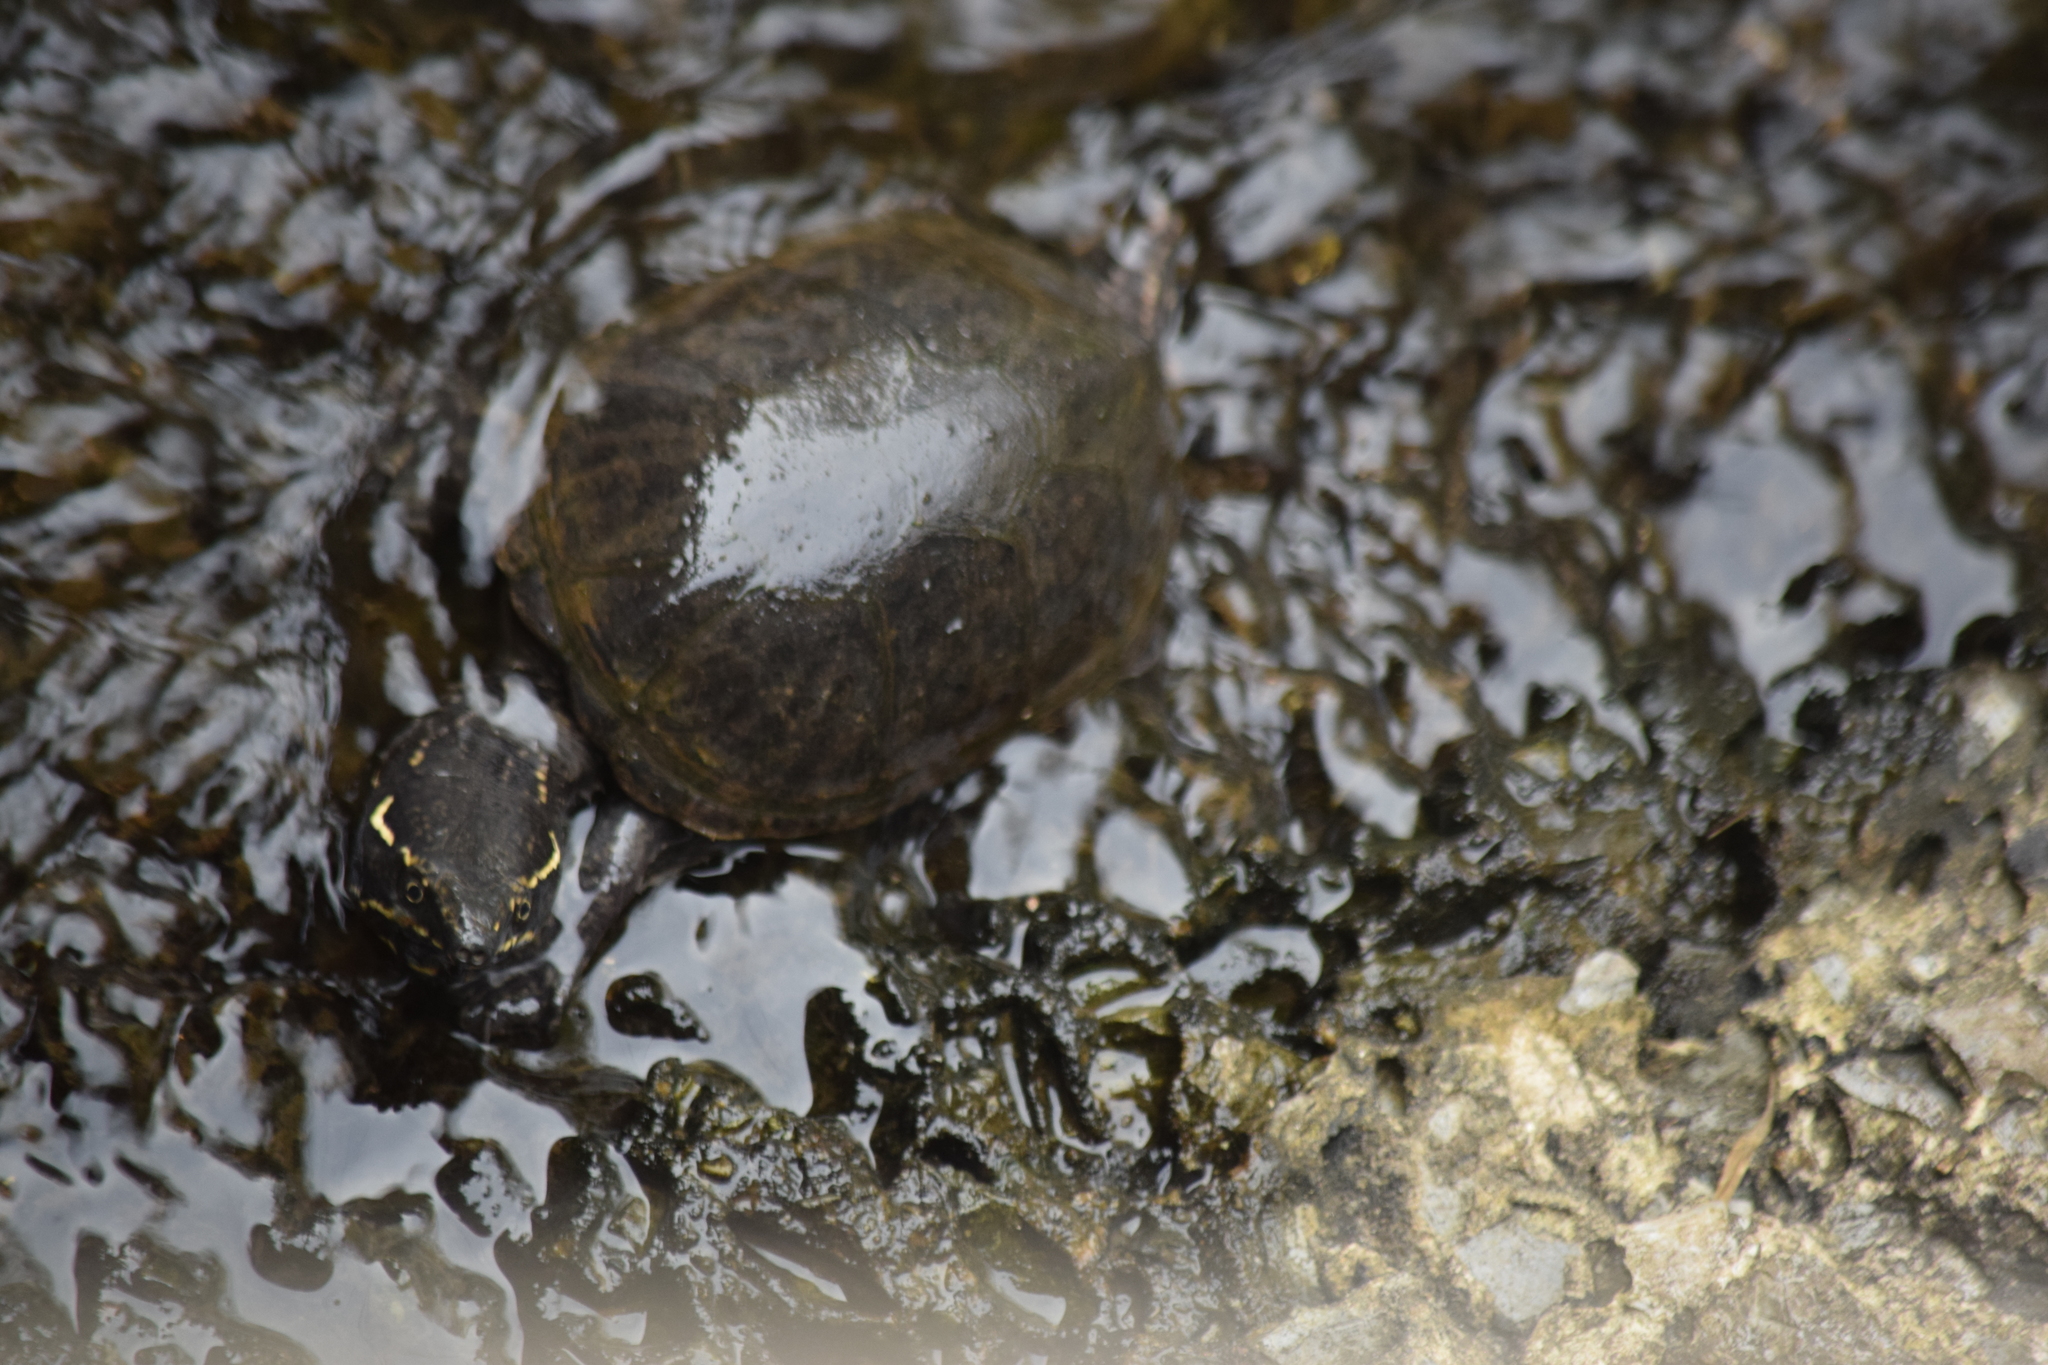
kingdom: Animalia
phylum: Chordata
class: Testudines
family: Kinosternidae
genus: Sternotherus
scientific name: Sternotherus odoratus
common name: Common musk turtle
